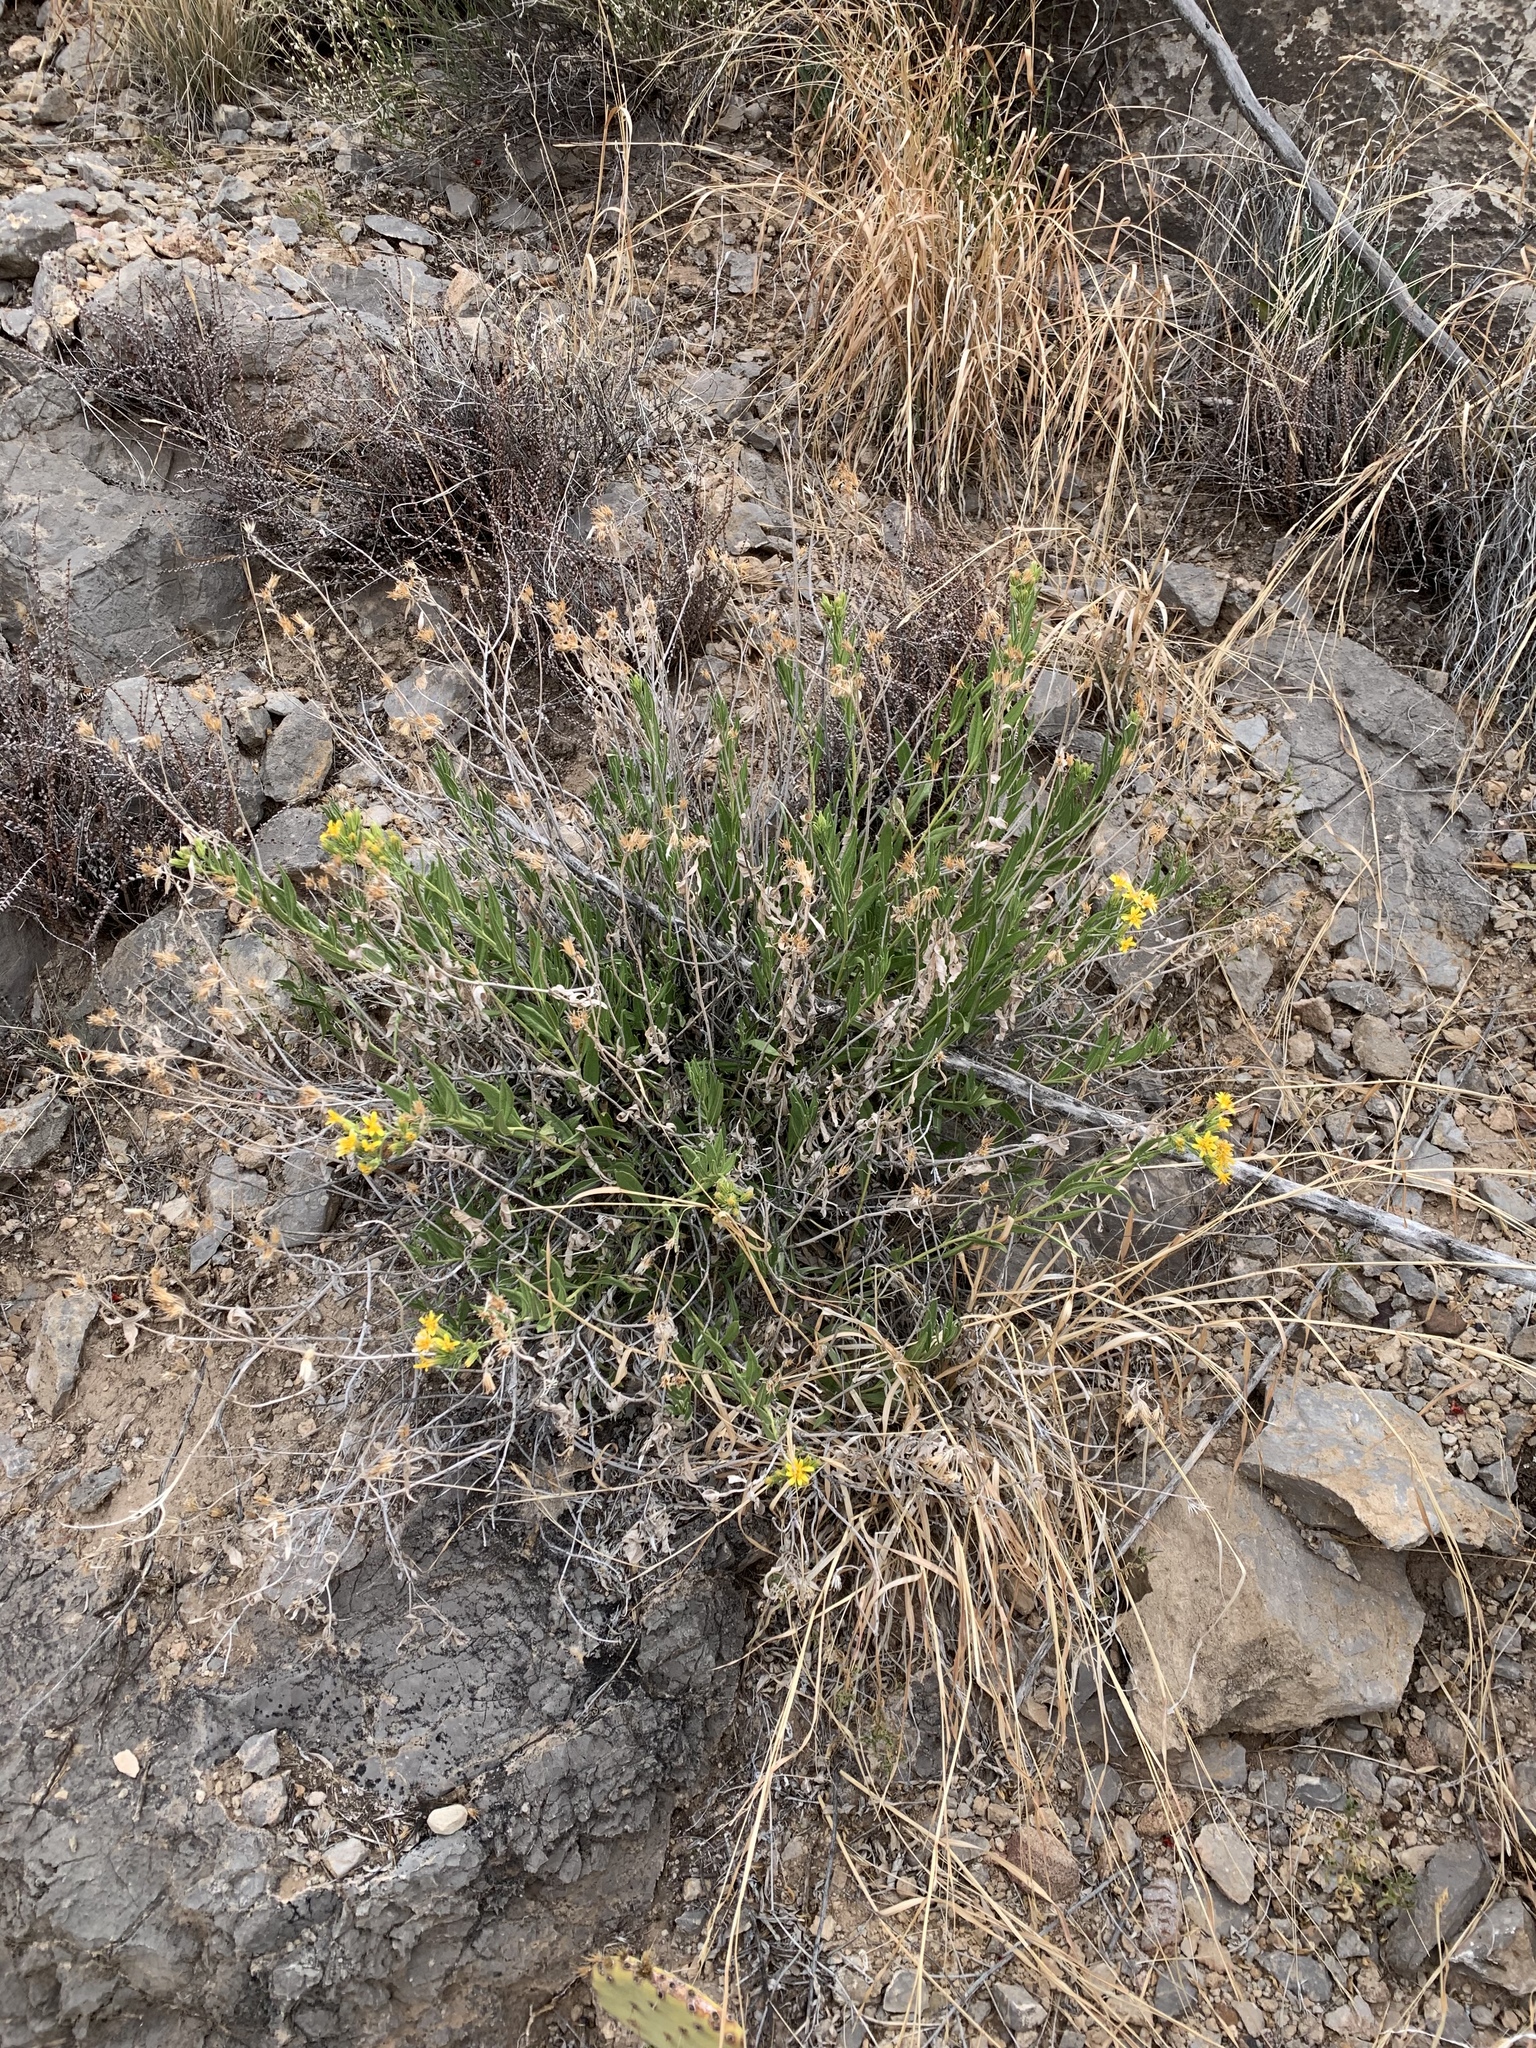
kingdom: Plantae
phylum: Tracheophyta
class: Magnoliopsida
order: Asterales
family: Asteraceae
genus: Trixis
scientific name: Trixis californica
